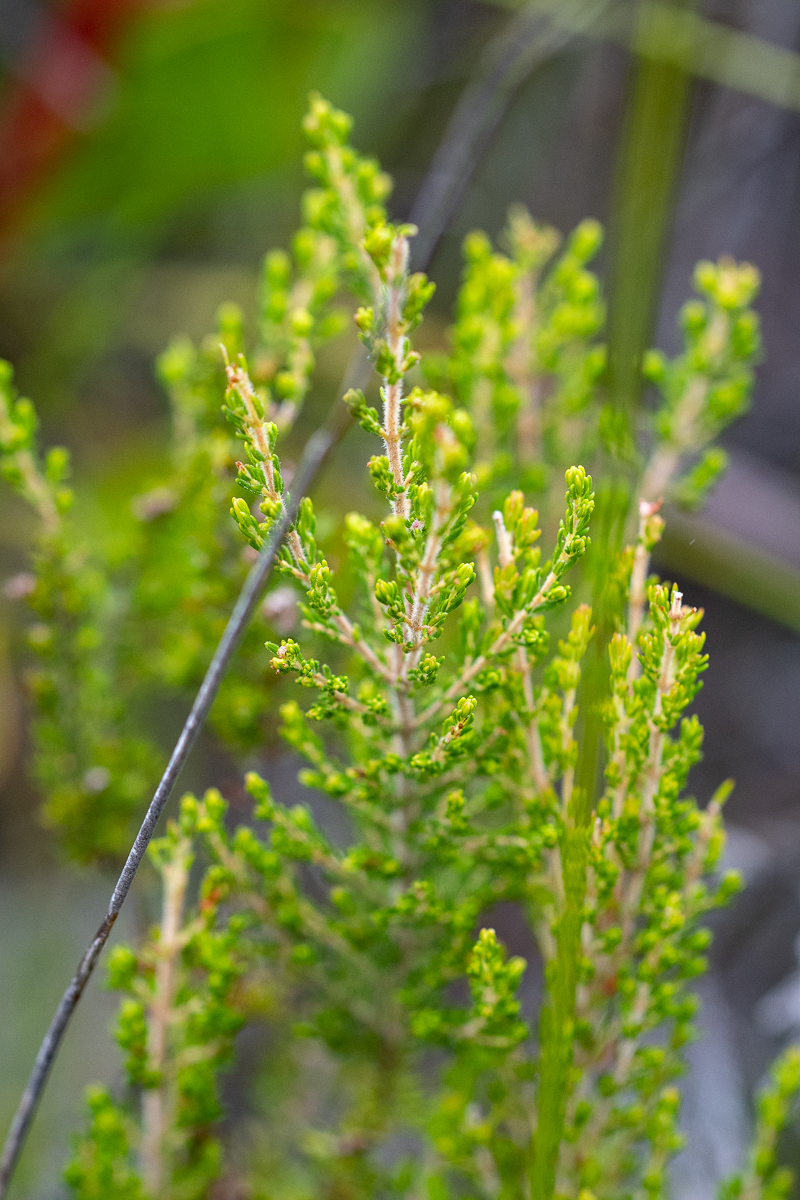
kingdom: Plantae
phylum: Tracheophyta
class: Magnoliopsida
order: Ericales
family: Ericaceae
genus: Erica
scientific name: Erica muscosa
